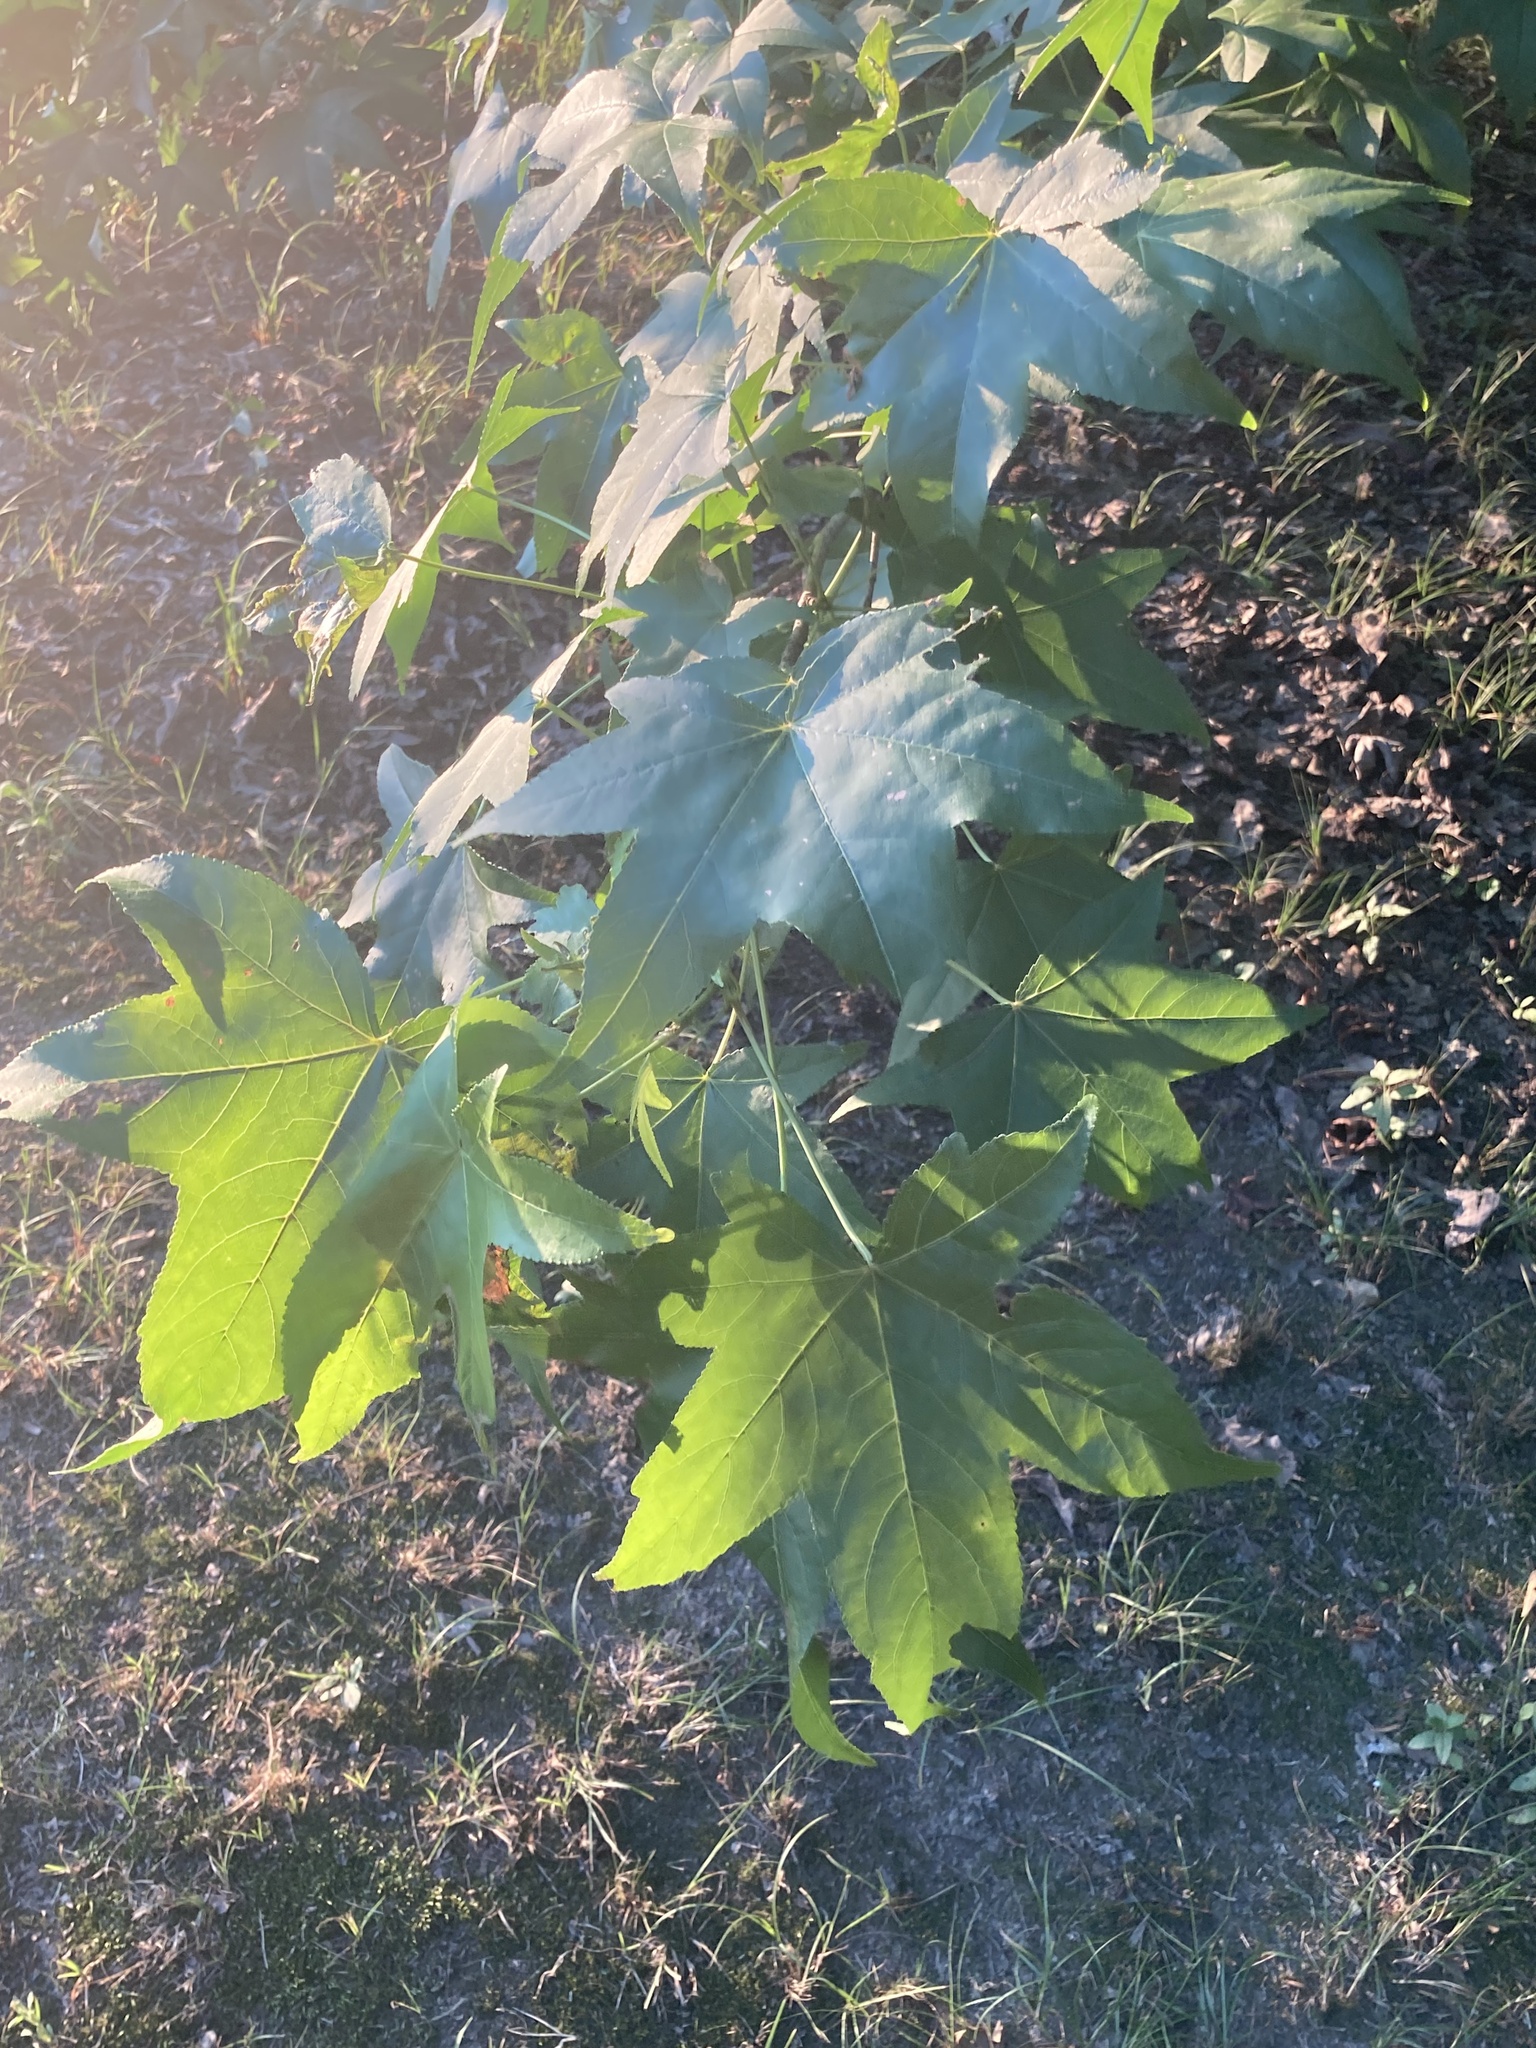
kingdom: Plantae
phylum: Tracheophyta
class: Magnoliopsida
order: Saxifragales
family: Altingiaceae
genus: Liquidambar
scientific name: Liquidambar styraciflua
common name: Sweet gum
